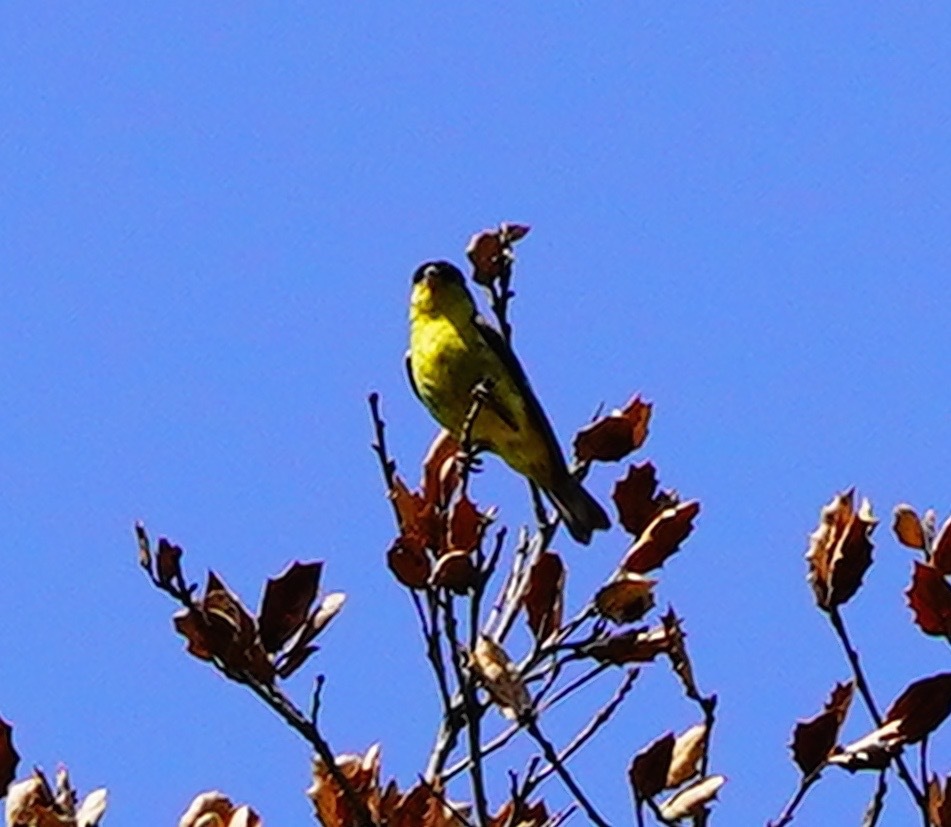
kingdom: Animalia
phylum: Chordata
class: Aves
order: Passeriformes
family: Fringillidae
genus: Spinus
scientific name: Spinus psaltria
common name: Lesser goldfinch
